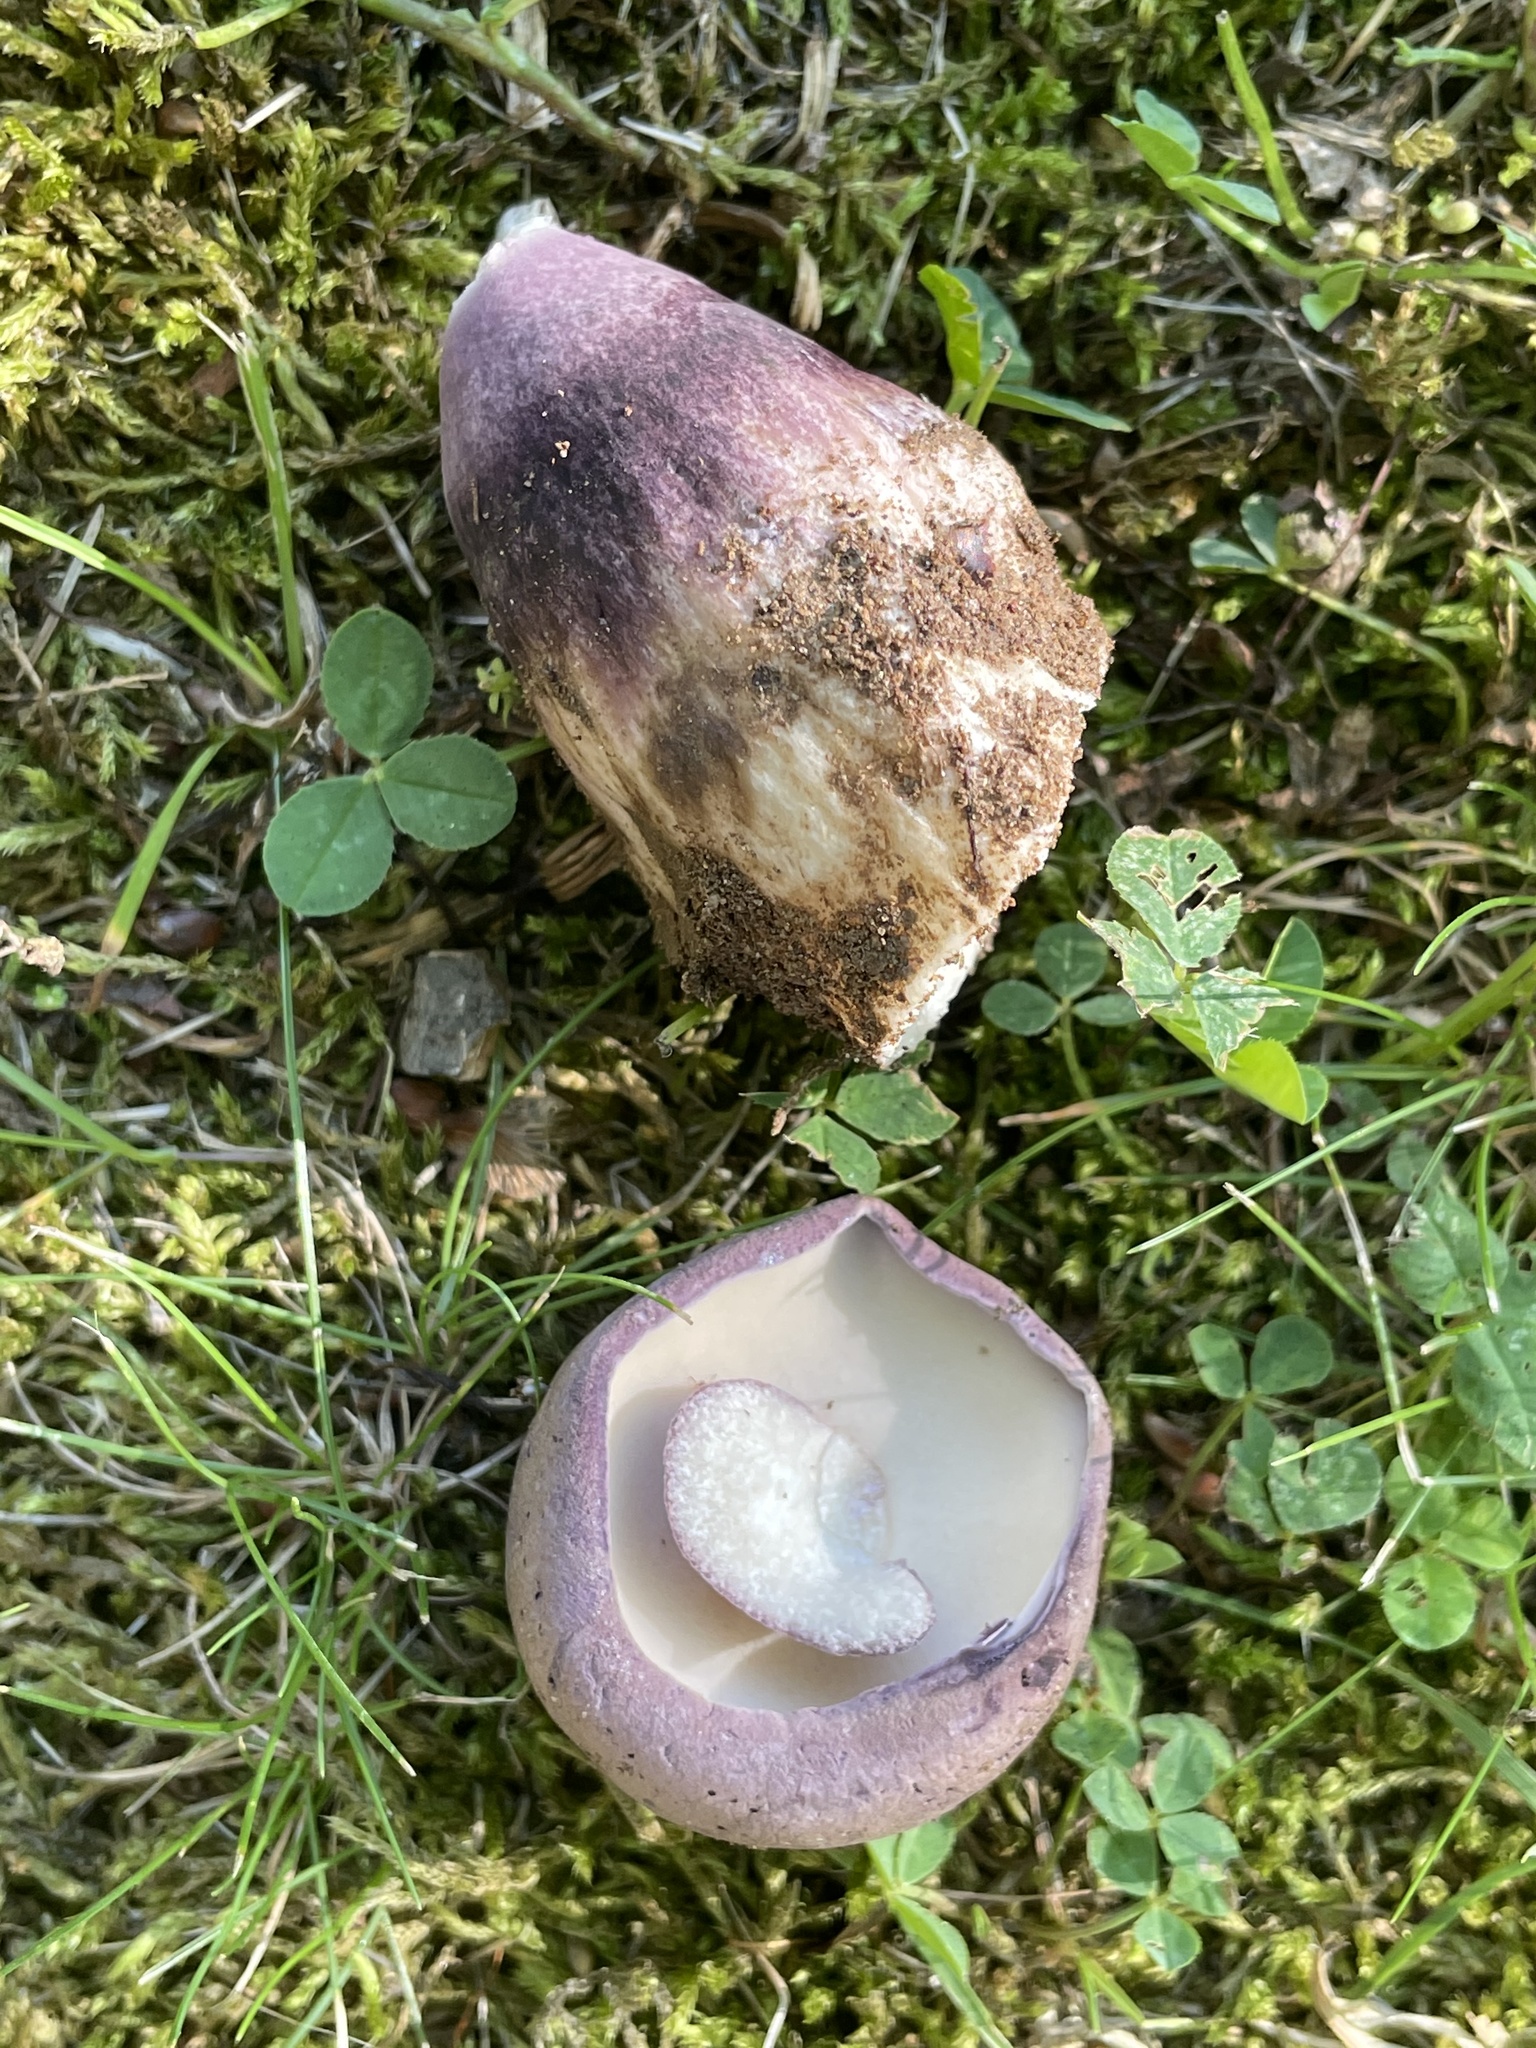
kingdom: Fungi
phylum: Basidiomycota
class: Agaricomycetes
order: Boletales
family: Boletaceae
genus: Tylopilus
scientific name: Tylopilus plumbeoviolaceus
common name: Violet gray bolete
